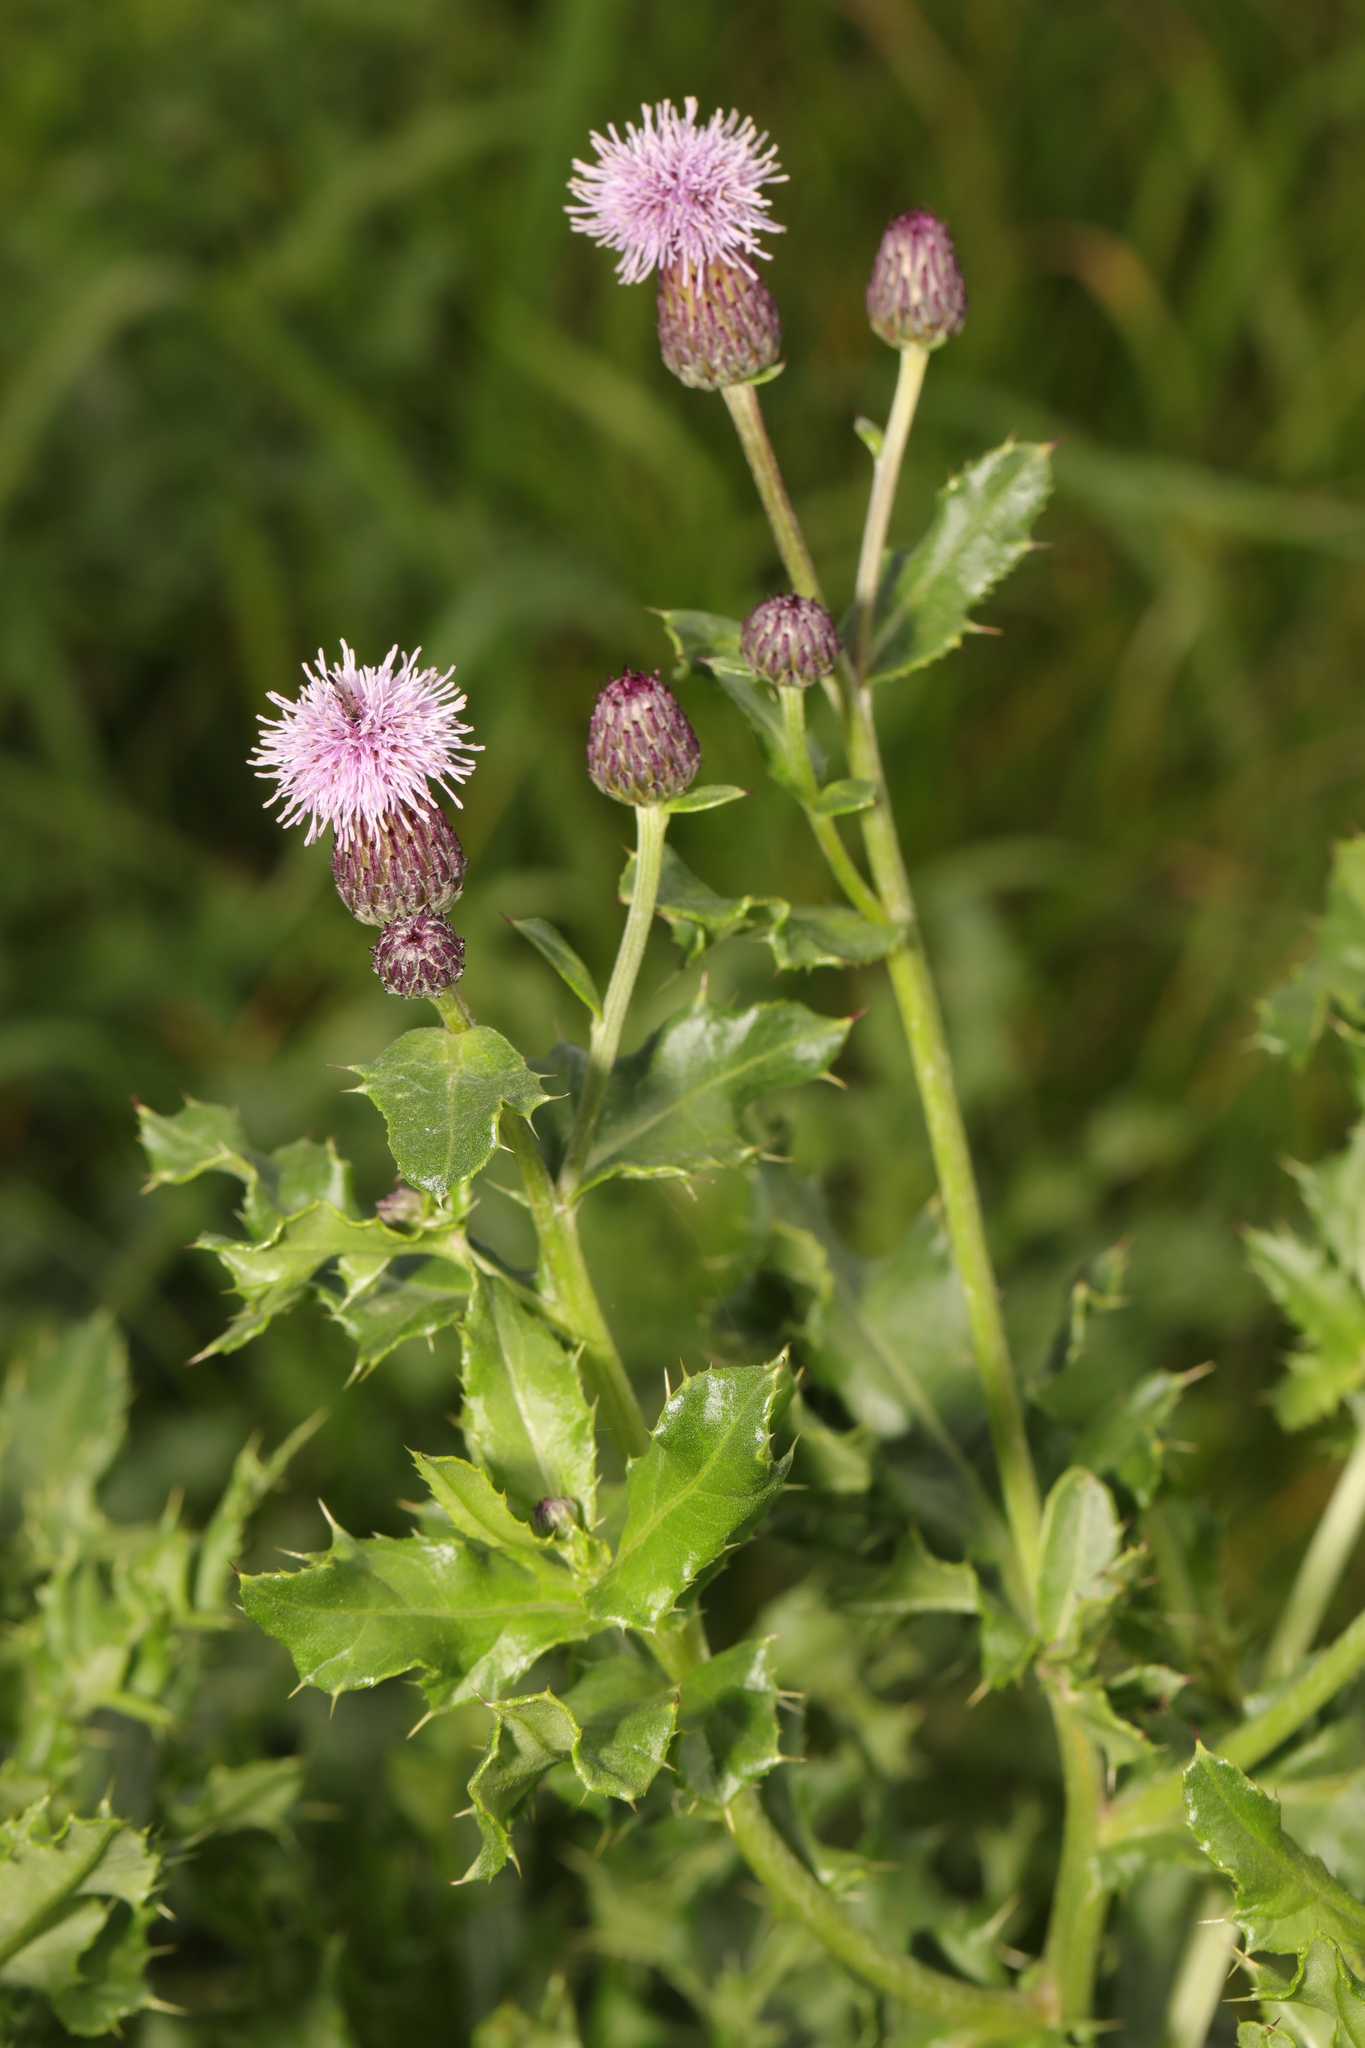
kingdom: Plantae
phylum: Tracheophyta
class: Magnoliopsida
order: Asterales
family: Asteraceae
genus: Cirsium
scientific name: Cirsium arvense
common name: Creeping thistle
